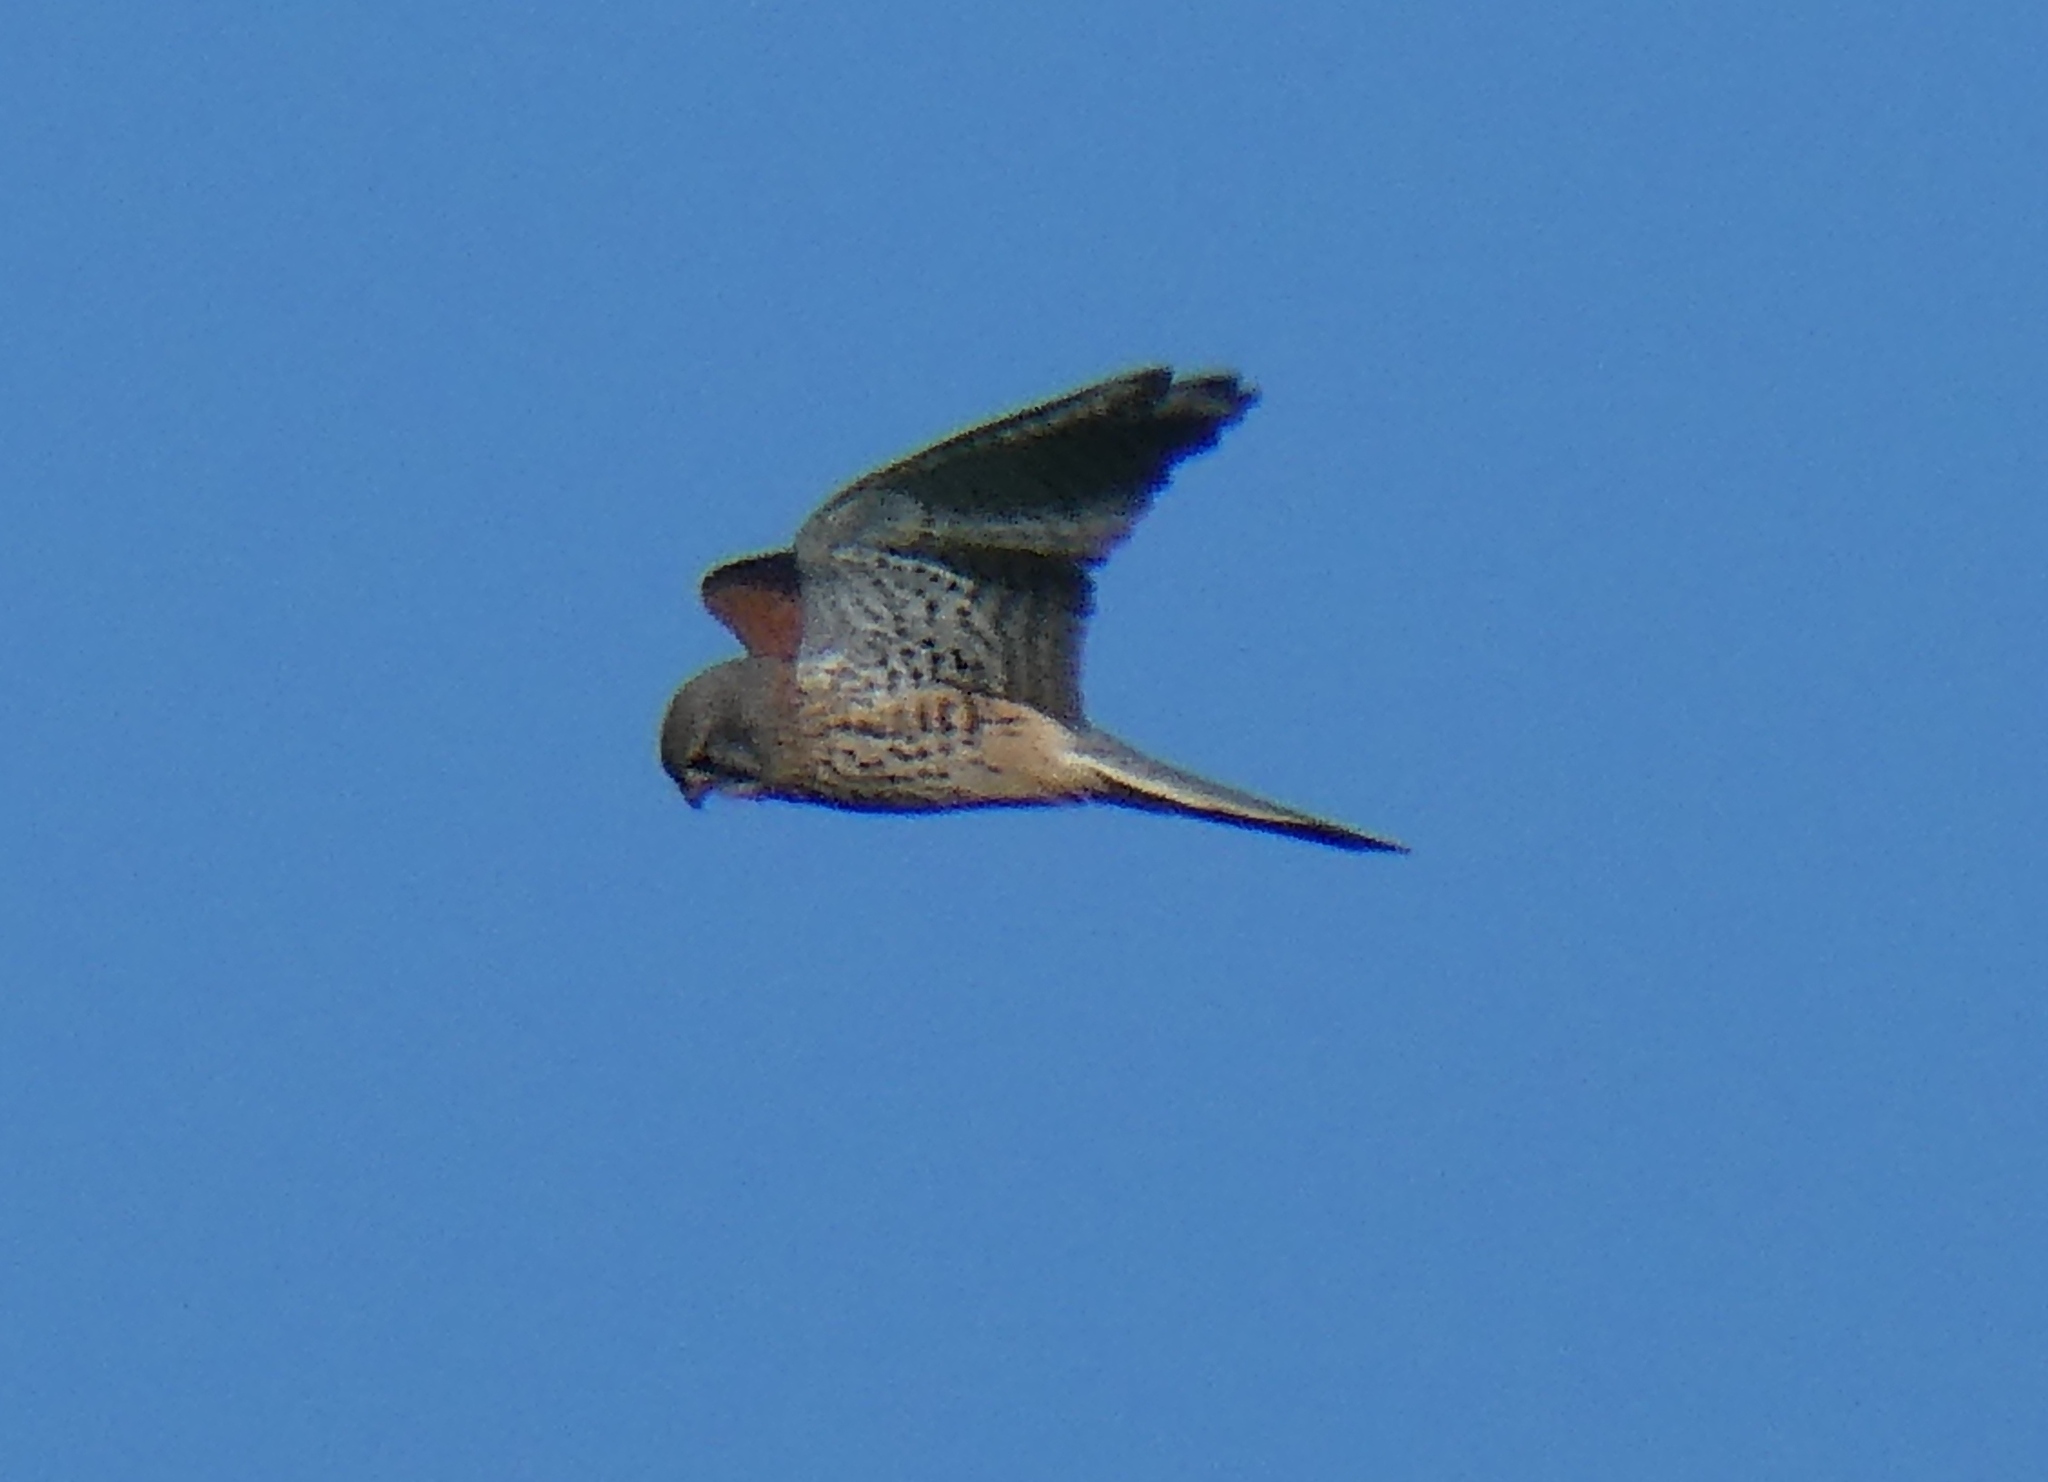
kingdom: Animalia
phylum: Chordata
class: Aves
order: Falconiformes
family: Falconidae
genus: Falco
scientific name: Falco tinnunculus
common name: Common kestrel
